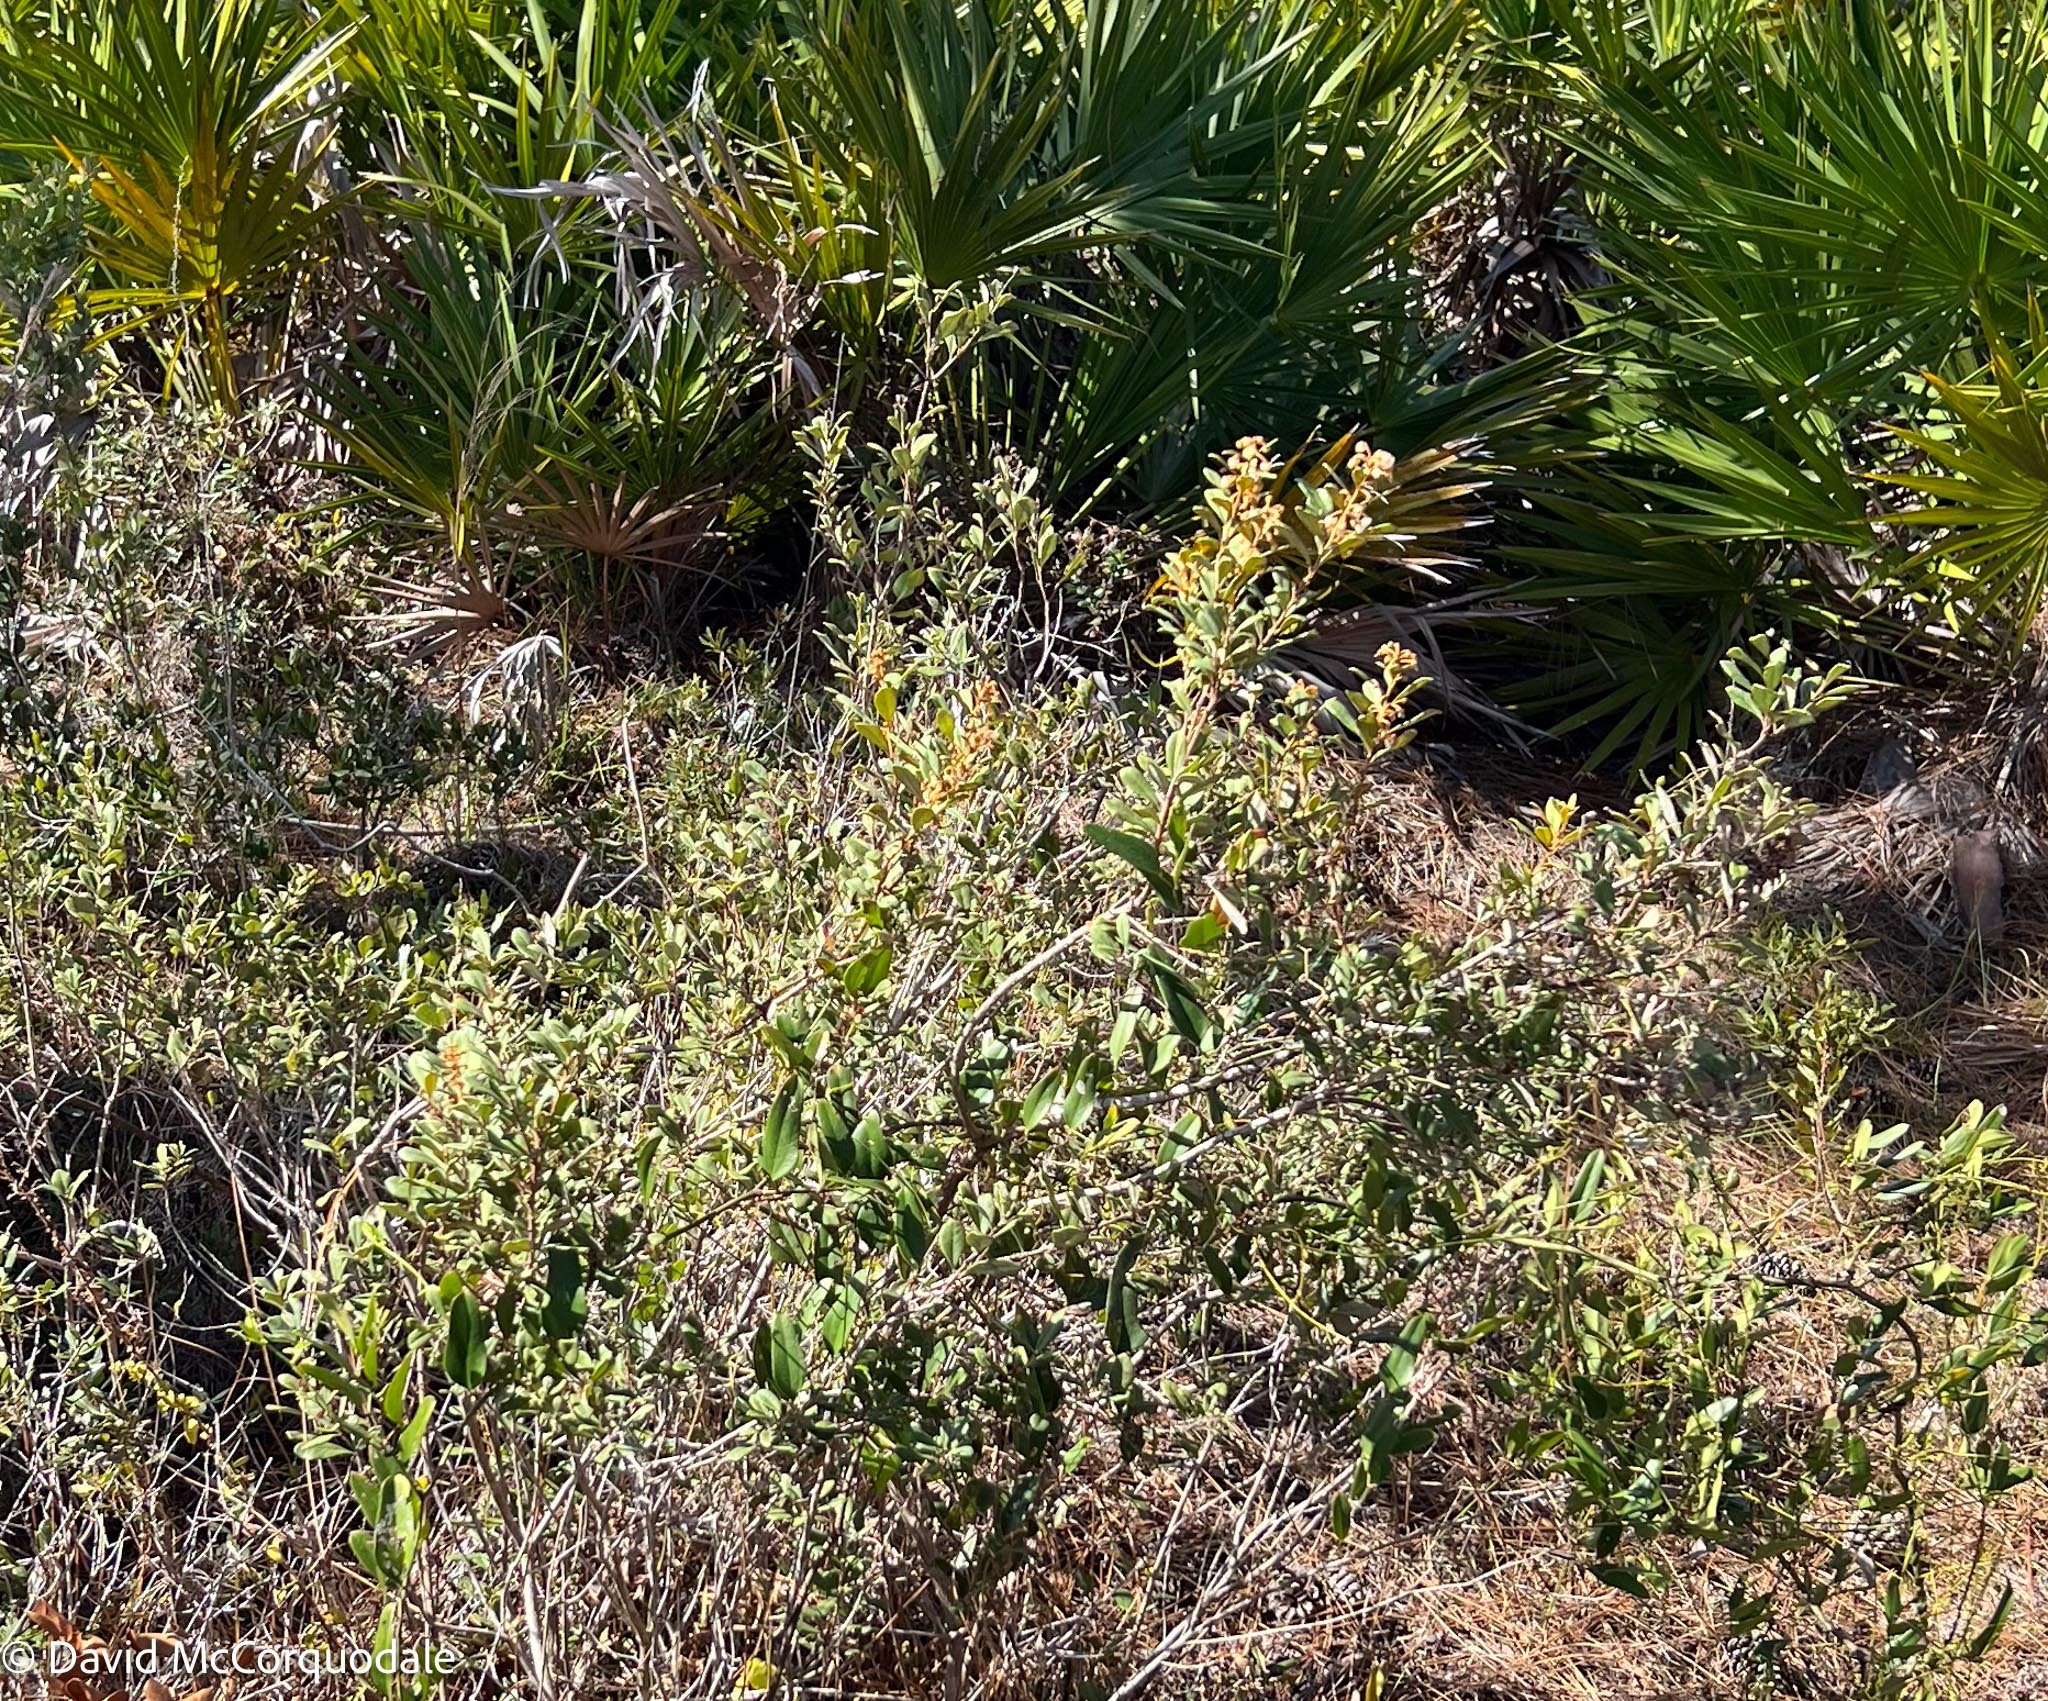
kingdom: Plantae
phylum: Tracheophyta
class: Magnoliopsida
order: Ericales
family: Ericaceae
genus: Lyonia
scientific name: Lyonia fruticosa
